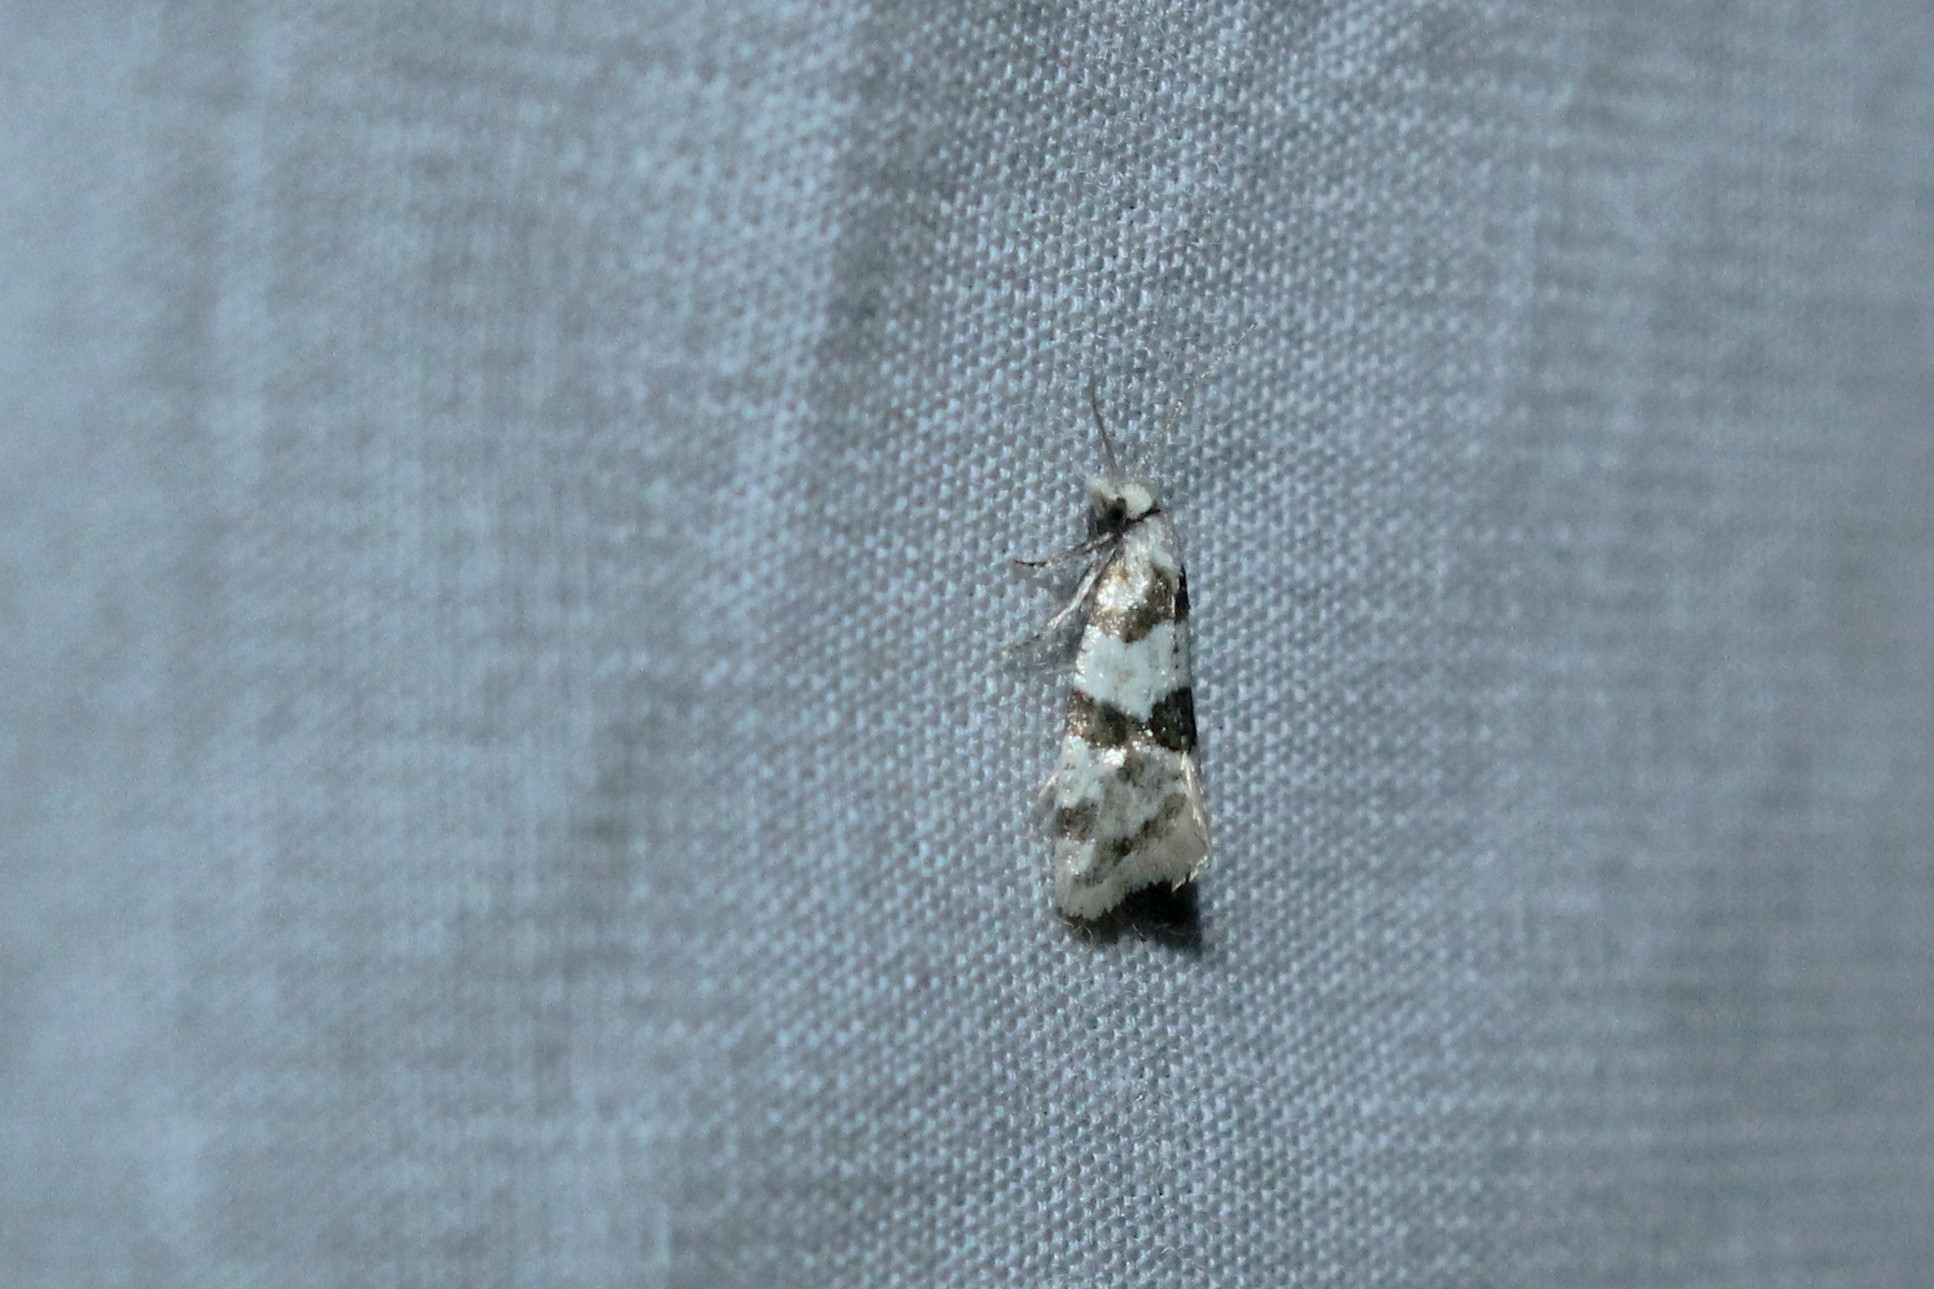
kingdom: Animalia
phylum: Arthropoda
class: Insecta
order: Lepidoptera
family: Tortricidae
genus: Aethes
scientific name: Aethes argentilimitana
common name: Silver-bordered aethes
